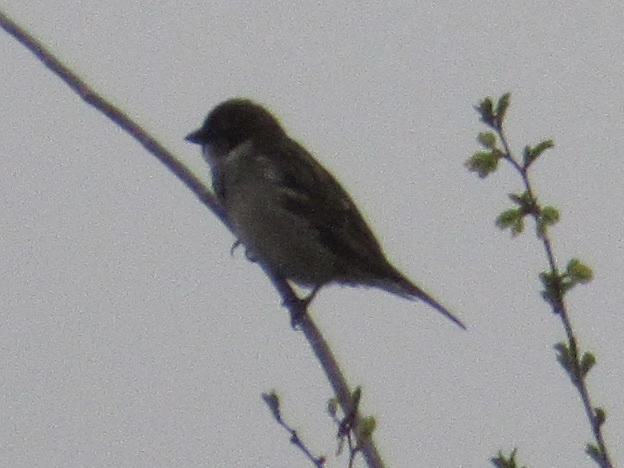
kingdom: Animalia
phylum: Chordata
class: Aves
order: Passeriformes
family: Passeridae
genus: Passer
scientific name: Passer domesticus
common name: House sparrow
